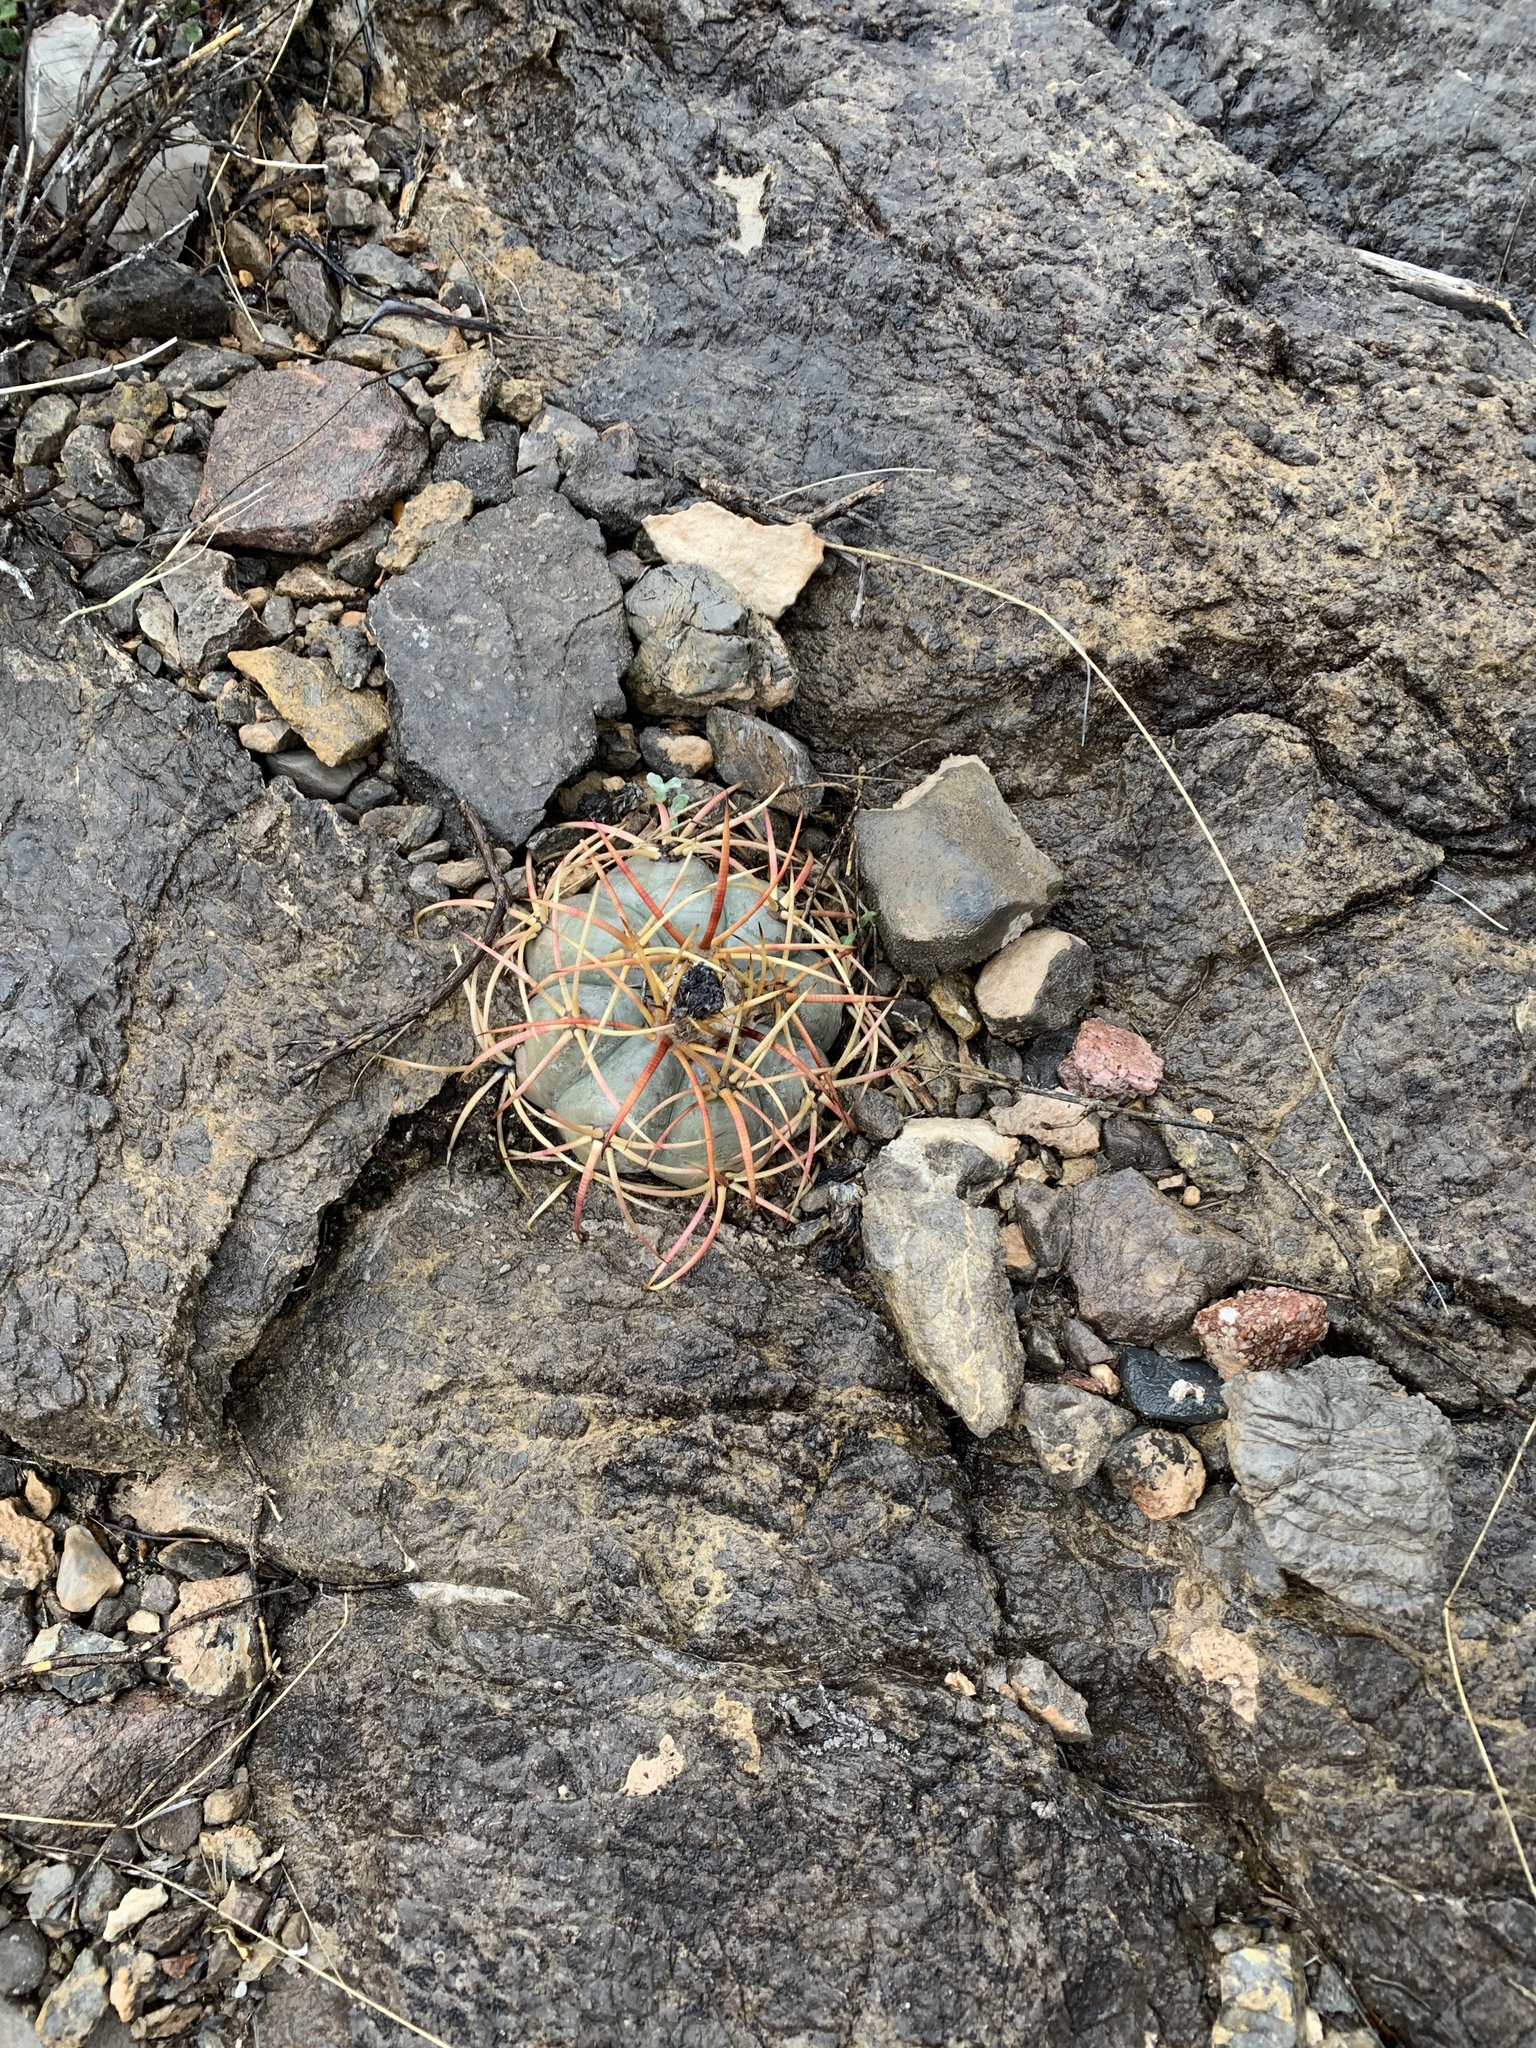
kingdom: Plantae
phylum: Tracheophyta
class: Magnoliopsida
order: Caryophyllales
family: Cactaceae
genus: Echinocactus
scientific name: Echinocactus horizonthalonius
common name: Devilshead
